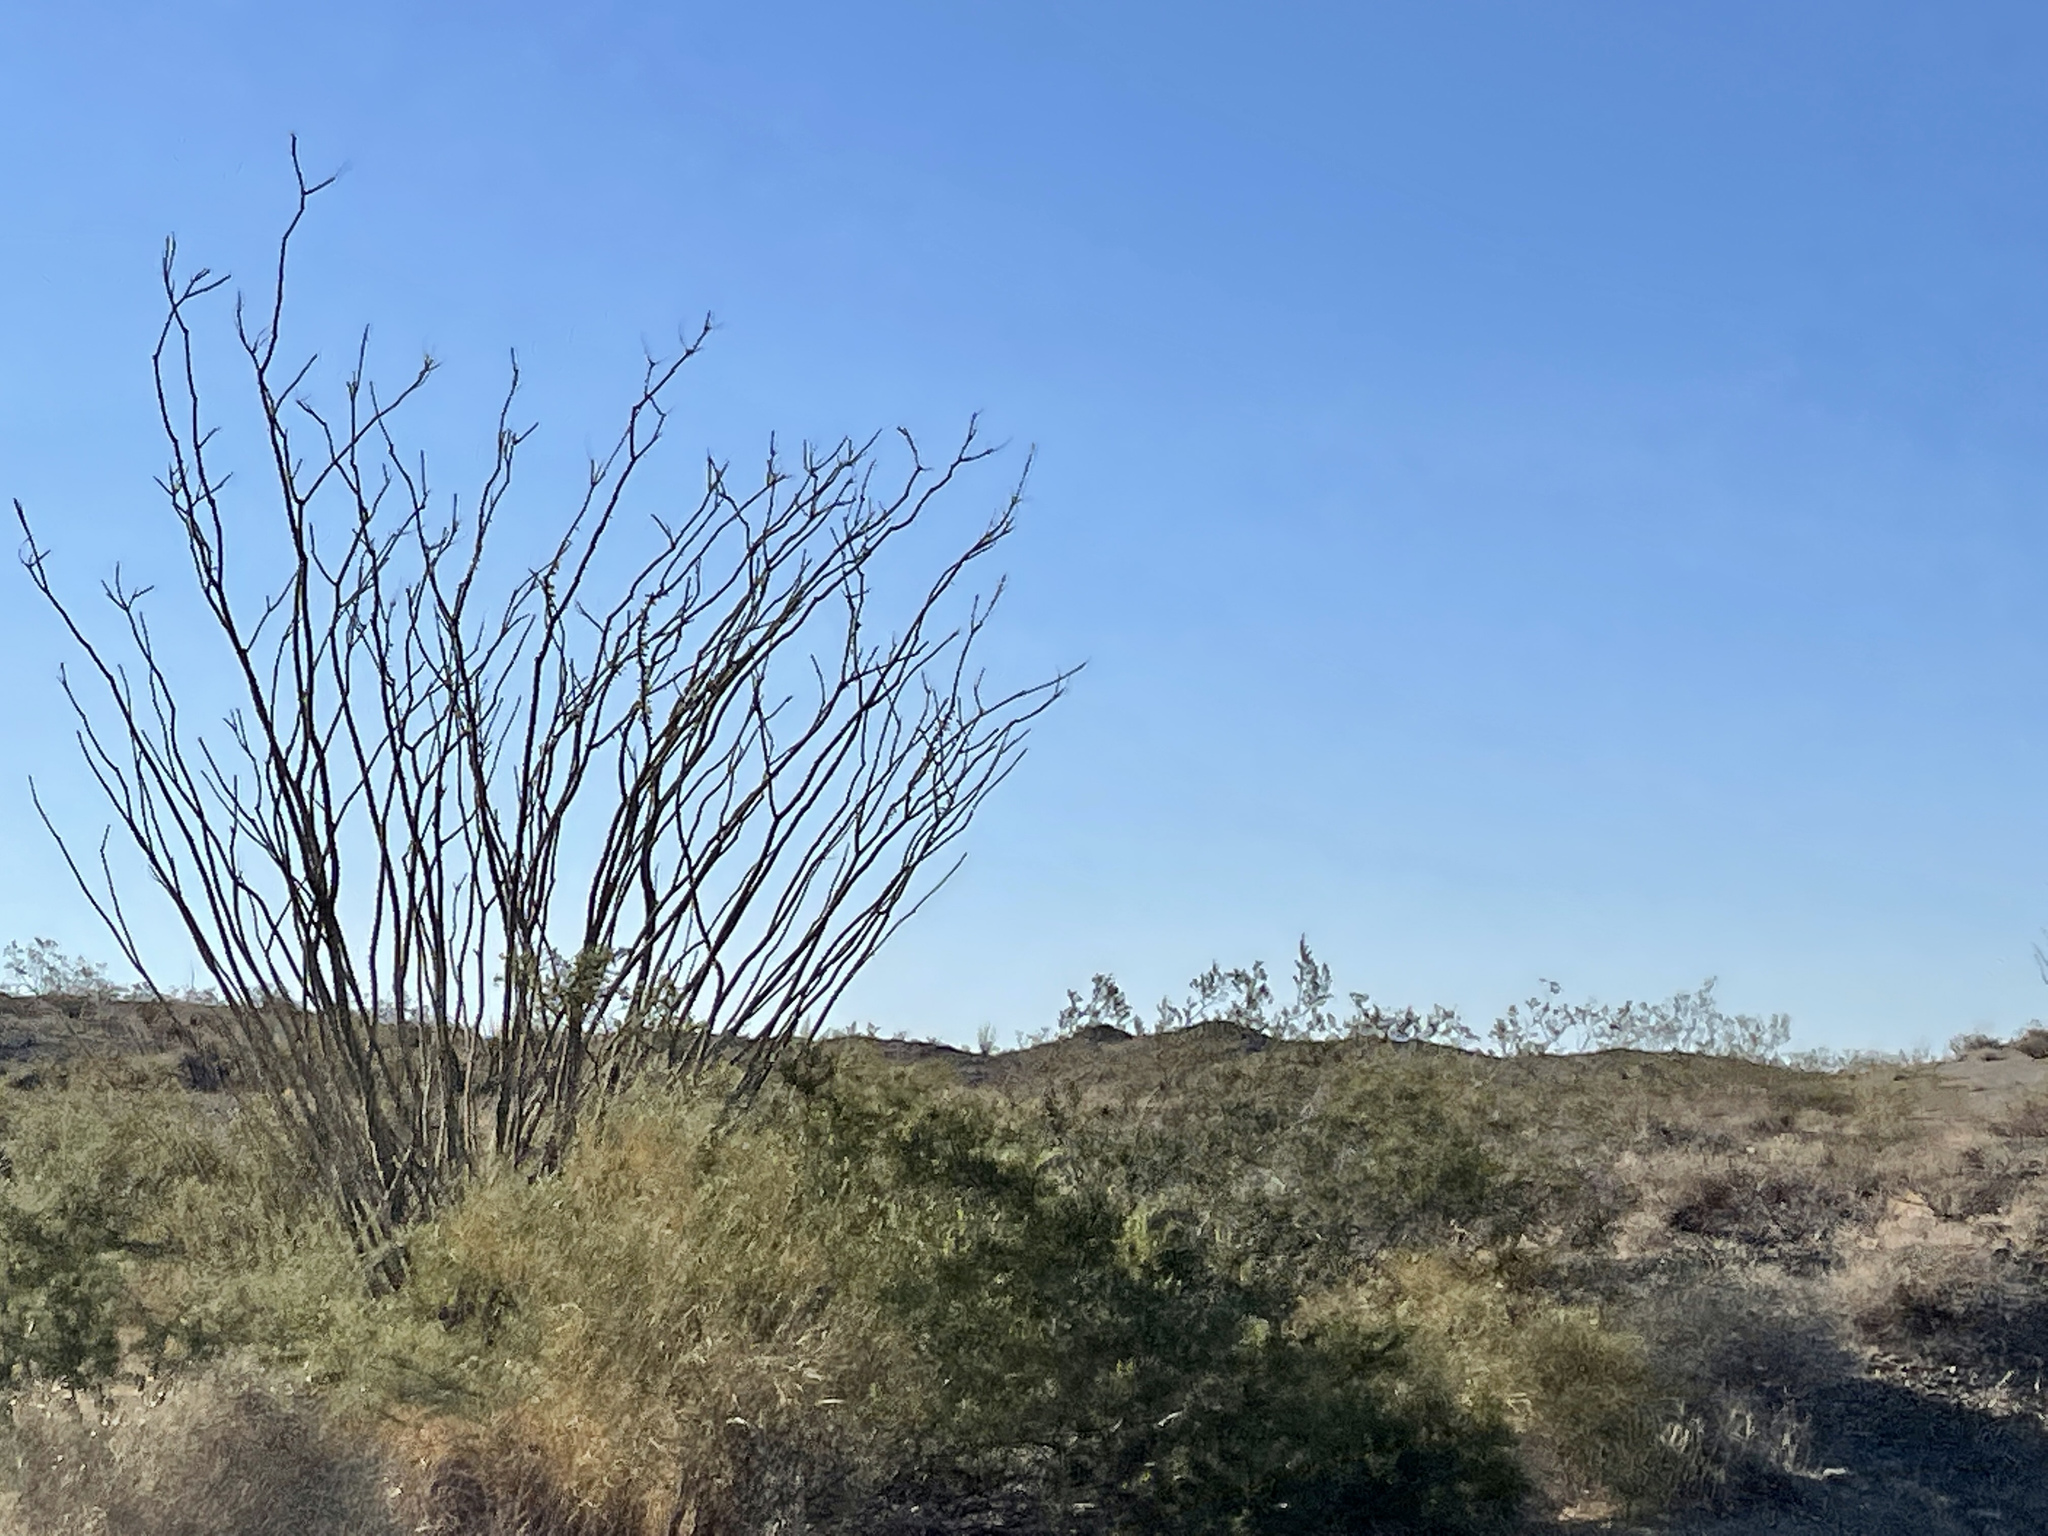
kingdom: Plantae
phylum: Tracheophyta
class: Magnoliopsida
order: Ericales
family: Fouquieriaceae
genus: Fouquieria
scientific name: Fouquieria splendens
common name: Vine-cactus
